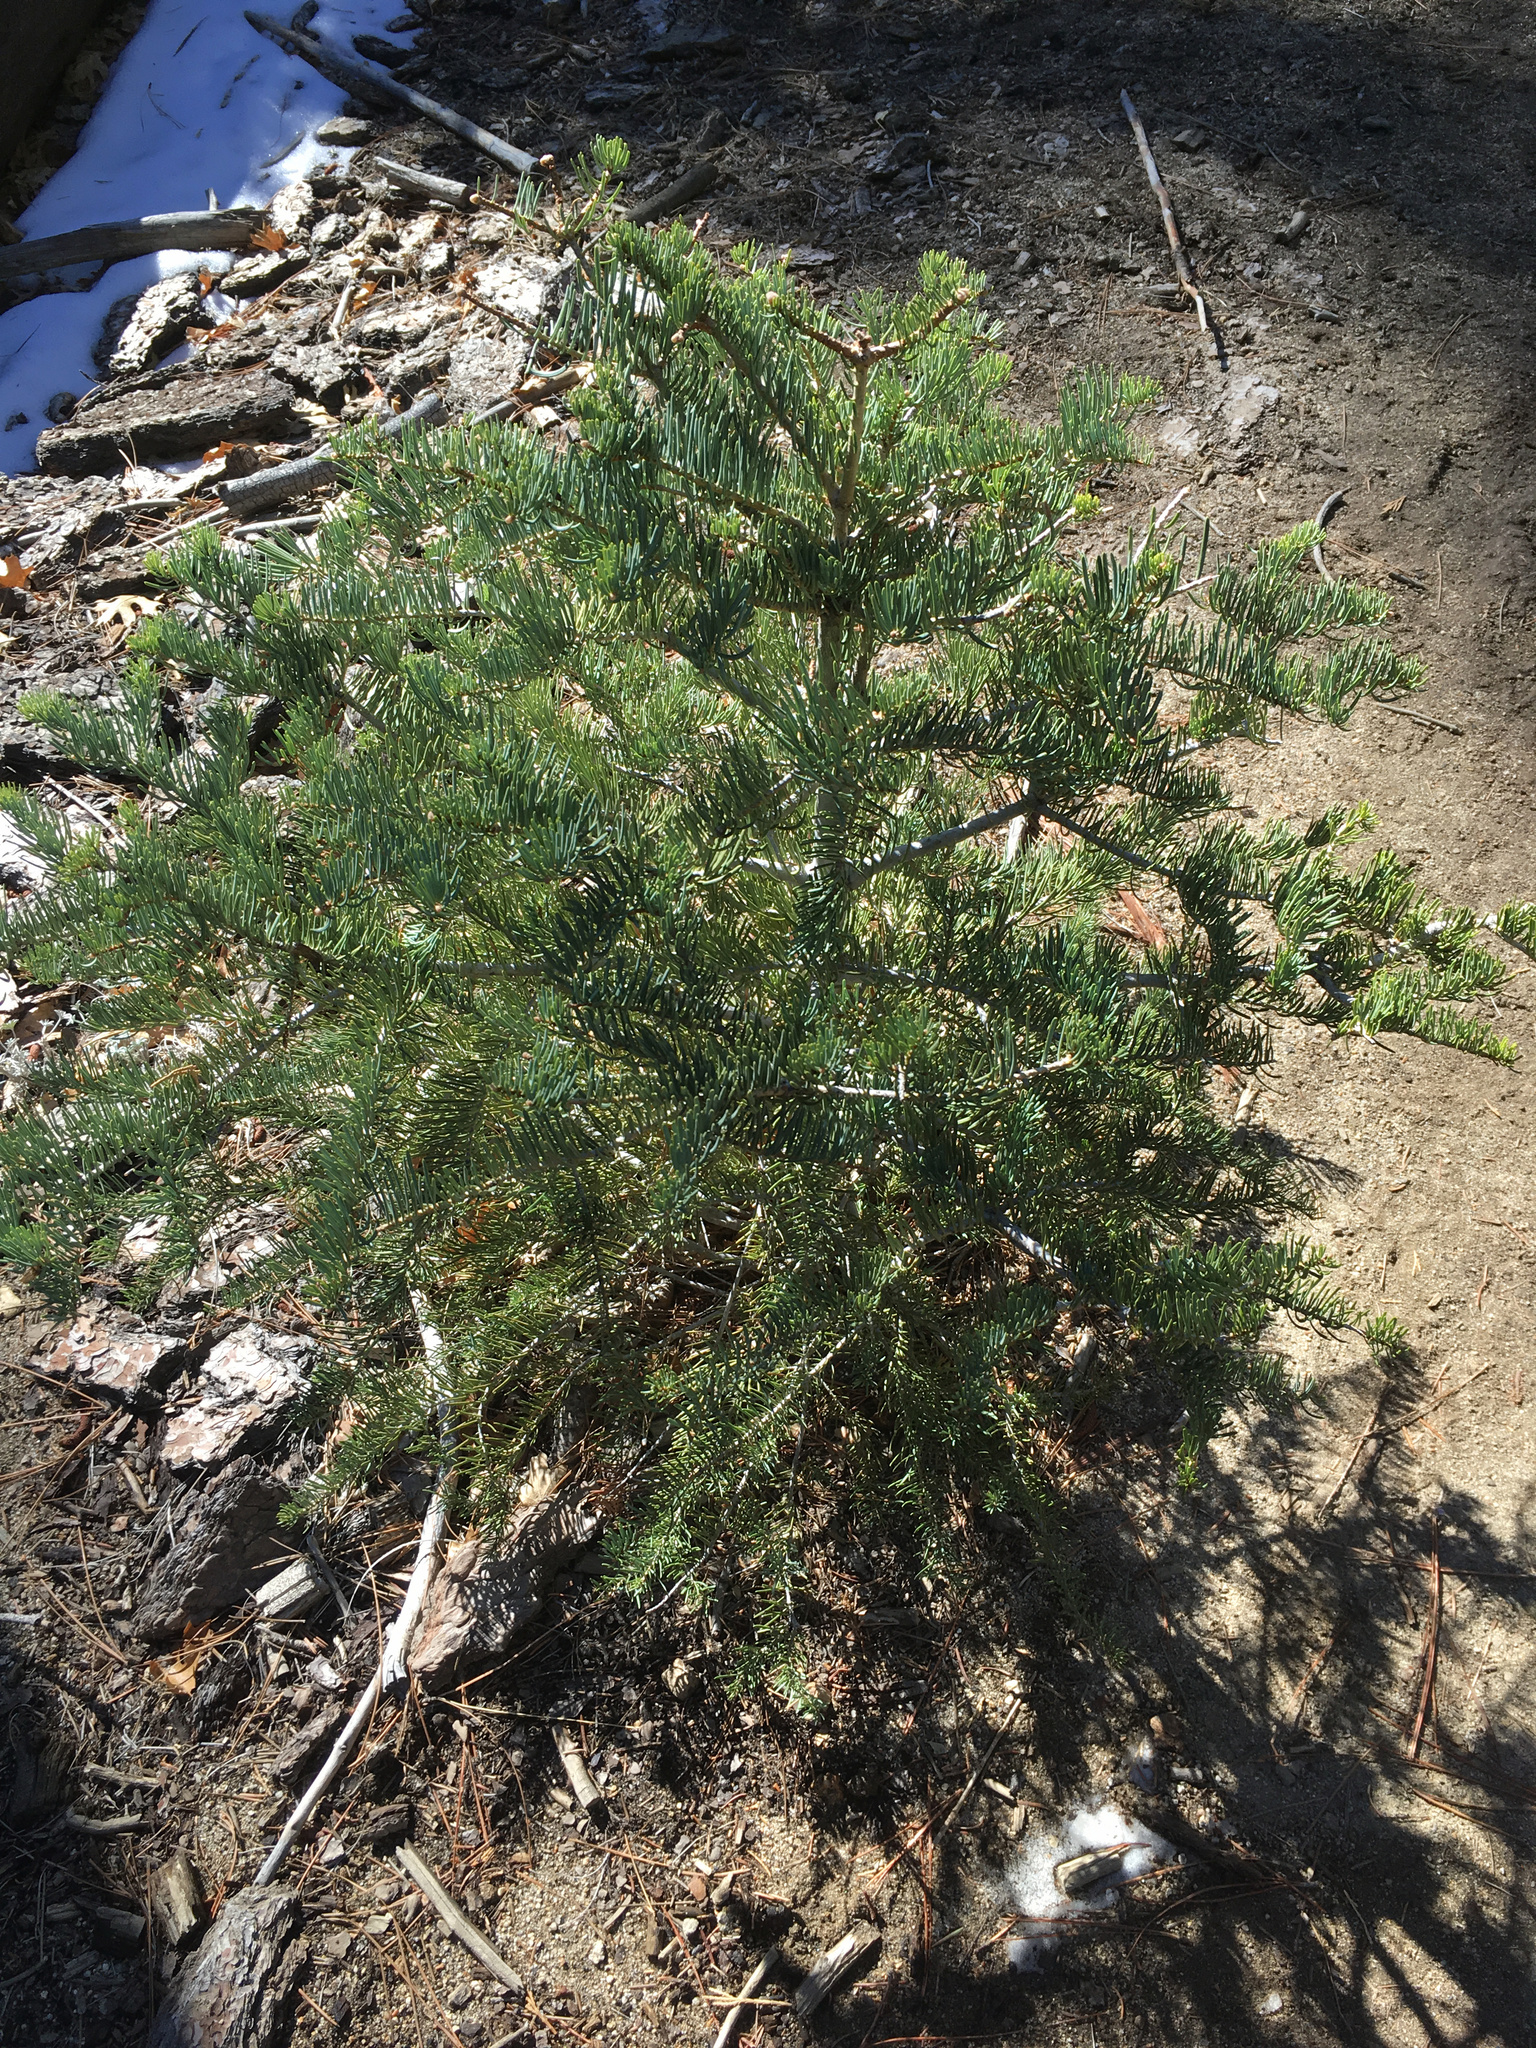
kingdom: Plantae
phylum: Tracheophyta
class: Pinopsida
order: Pinales
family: Pinaceae
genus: Abies
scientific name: Abies concolor
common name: Colorado fir
